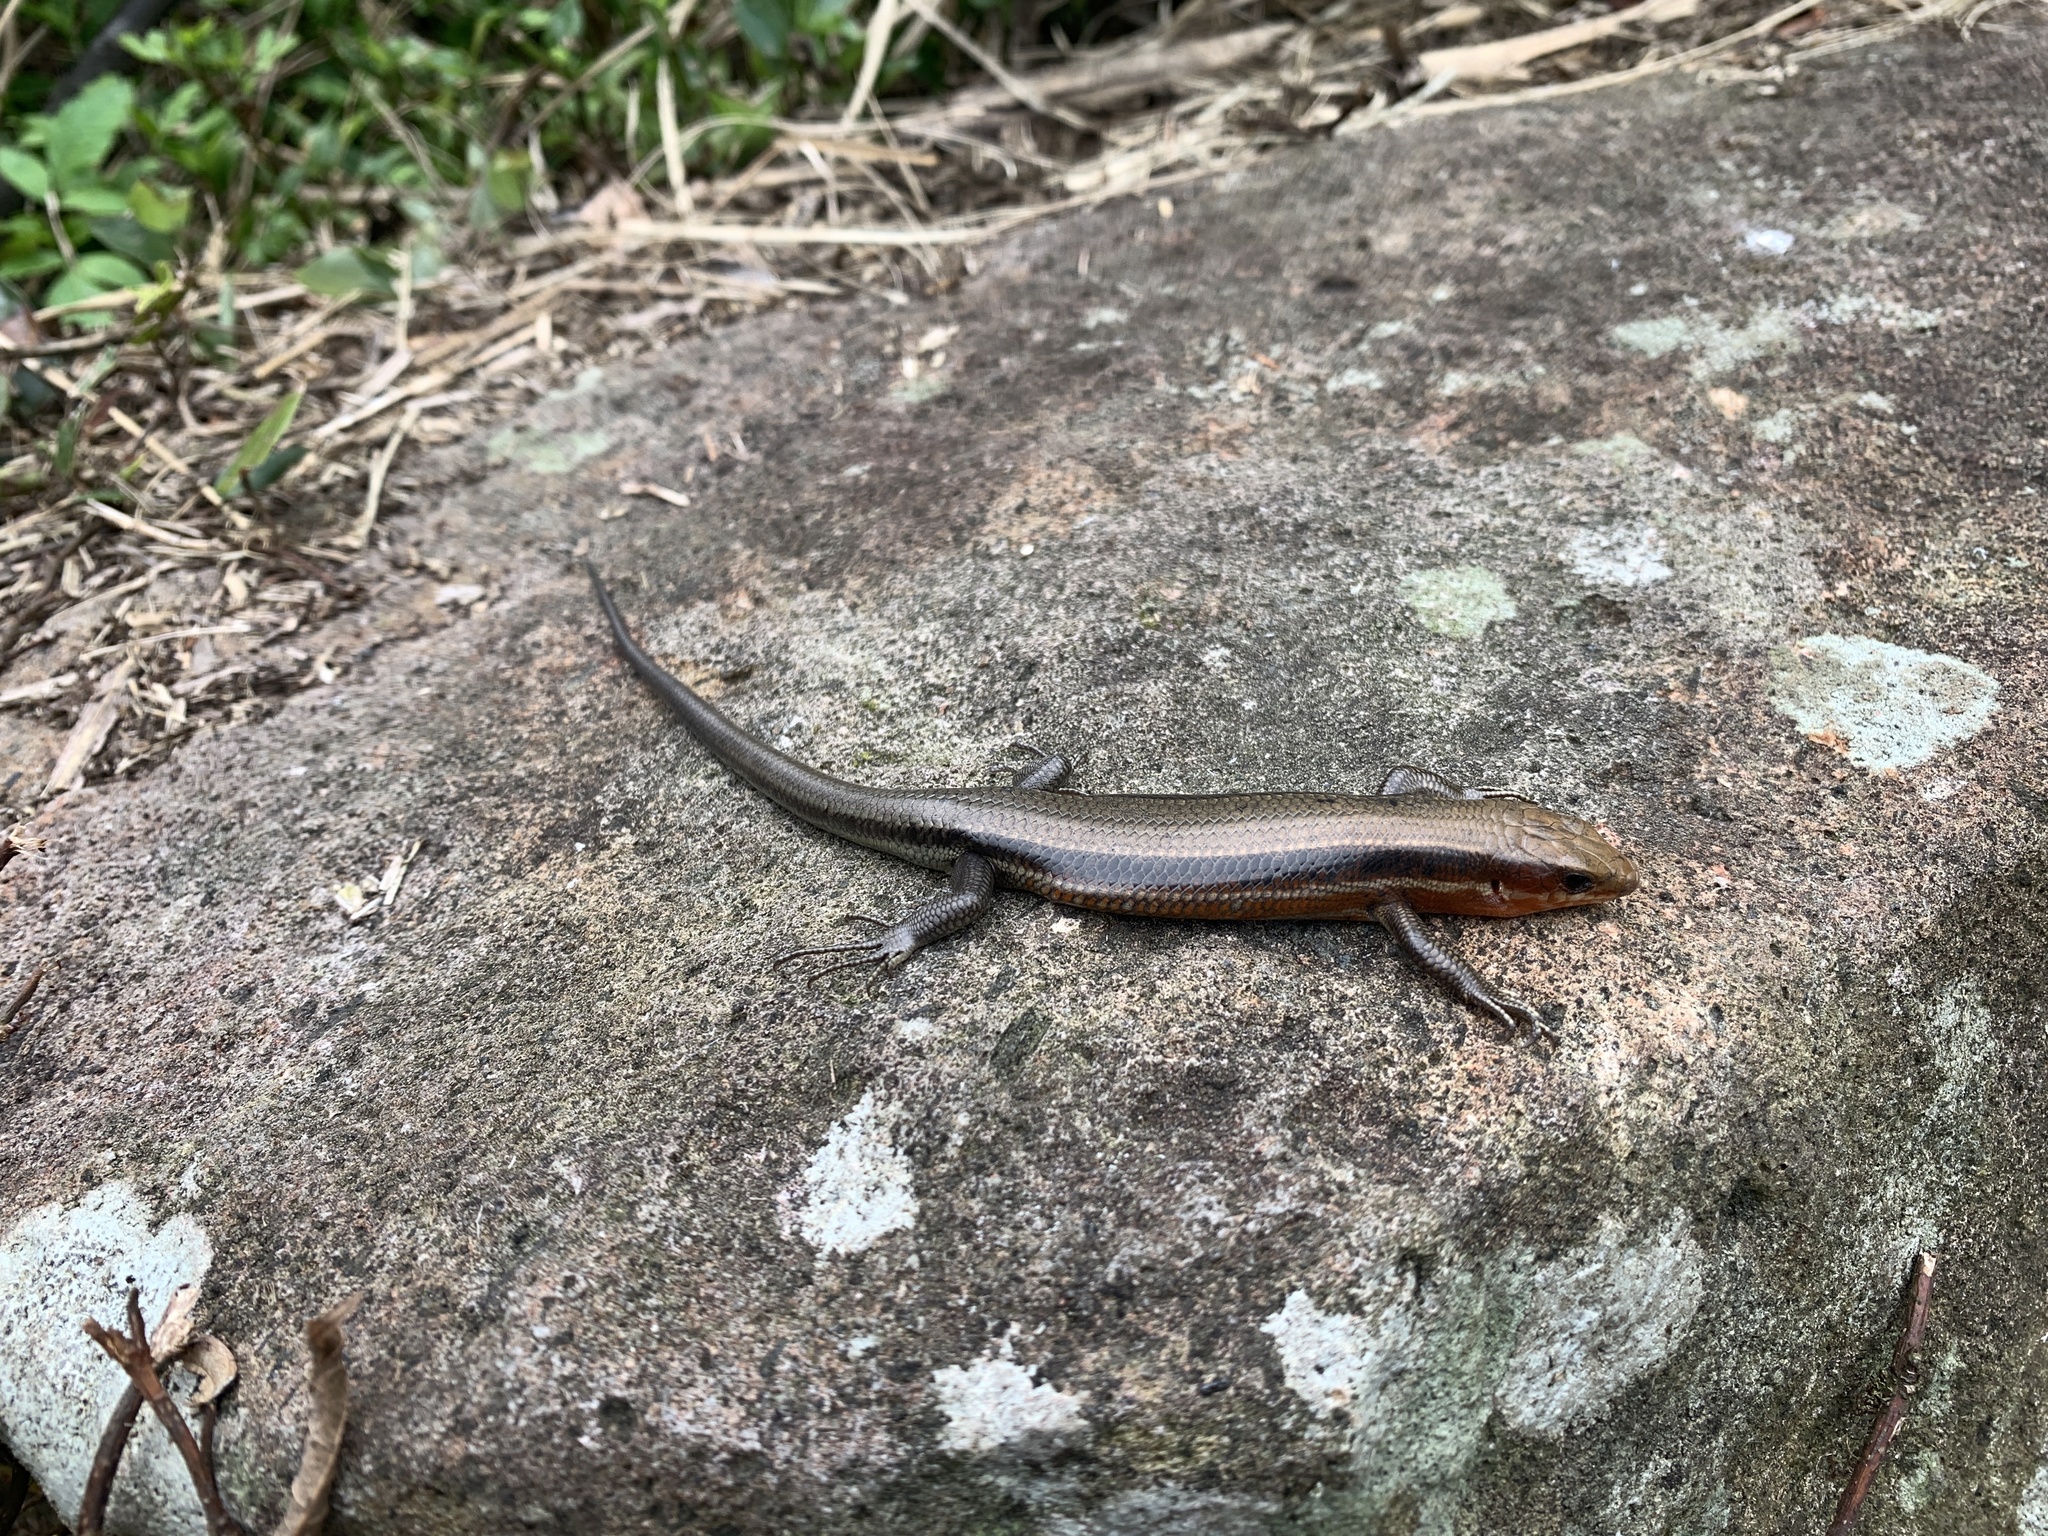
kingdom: Animalia
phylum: Chordata
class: Squamata
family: Scincidae
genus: Plestiodon
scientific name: Plestiodon elegans
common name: Shanghai elegant skink
